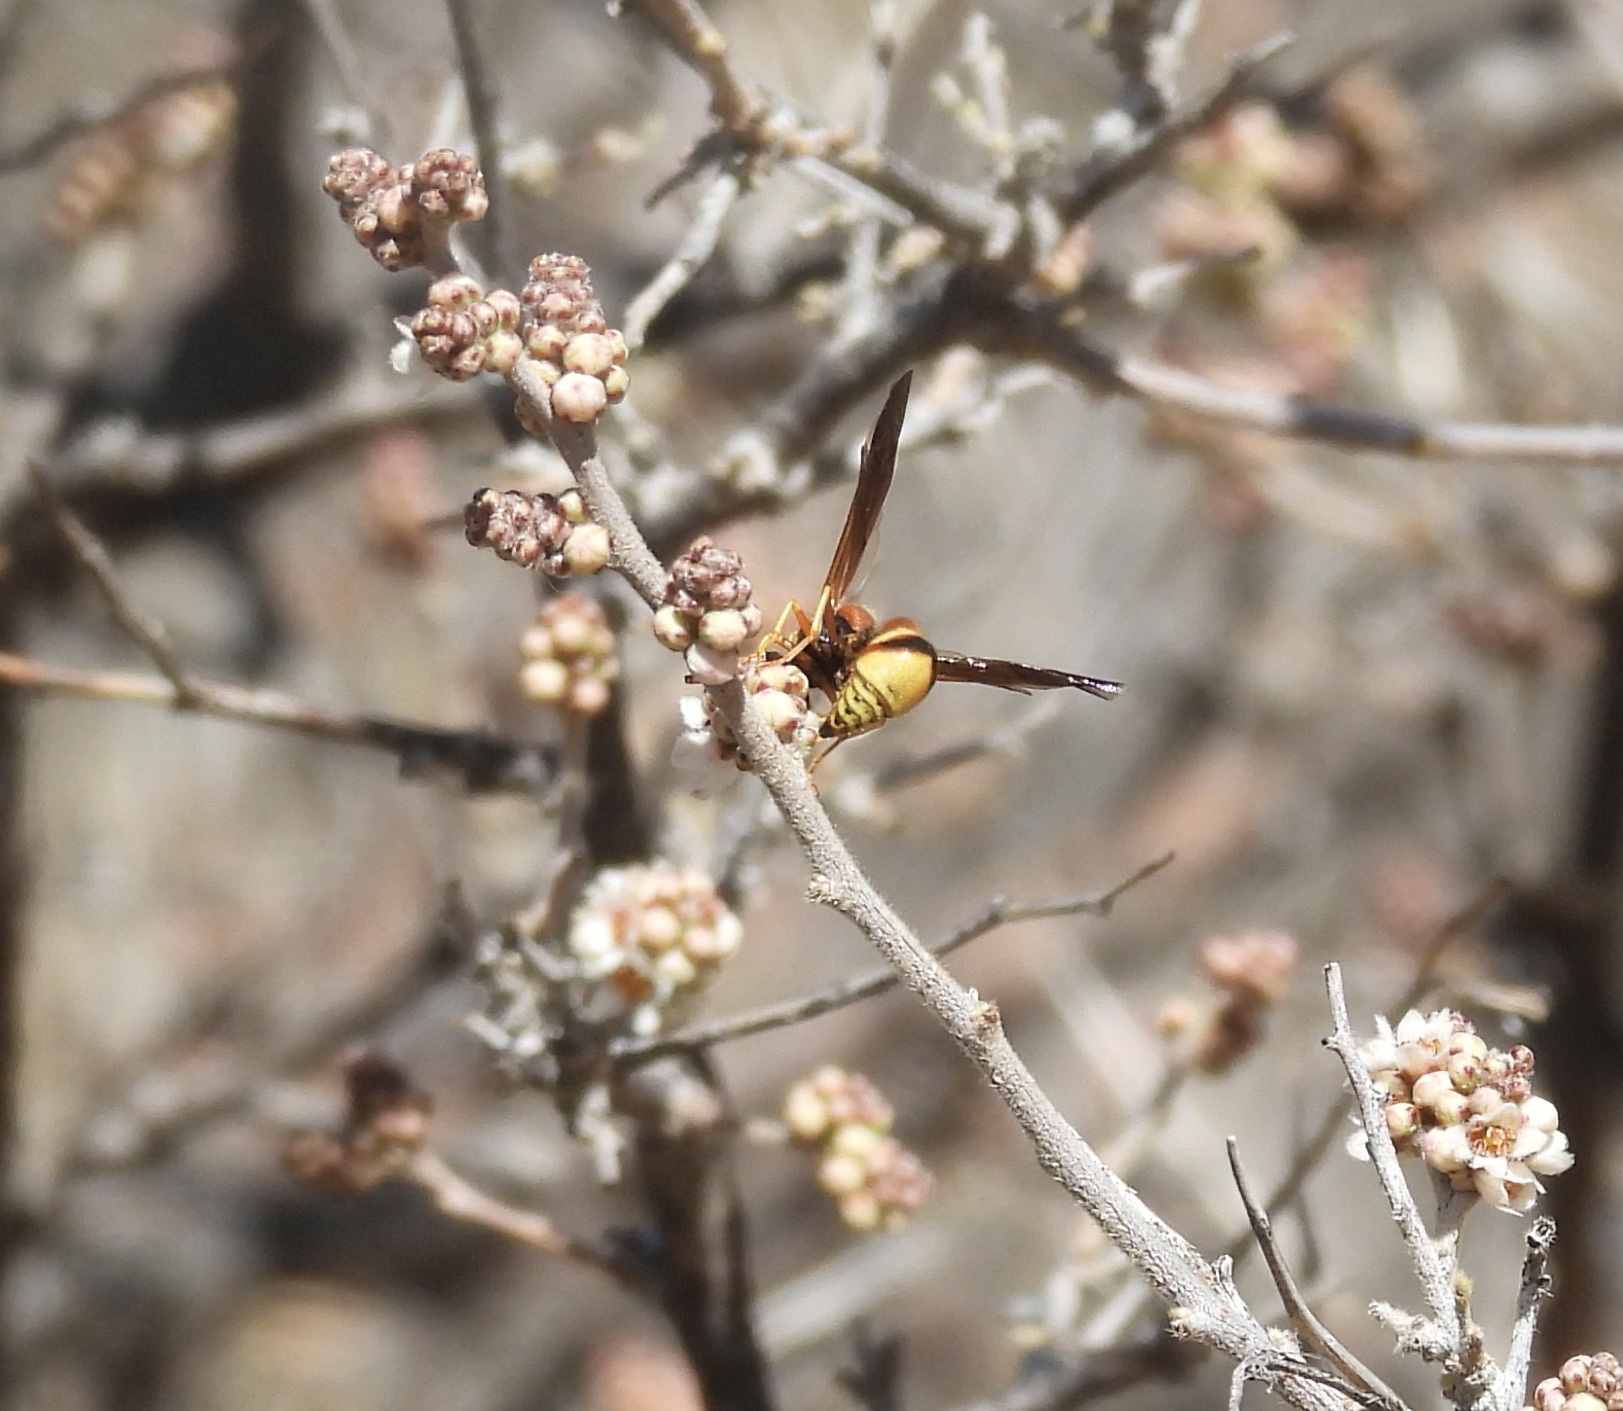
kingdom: Animalia
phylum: Arthropoda
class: Insecta
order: Hymenoptera
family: Vespidae
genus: Eumenes
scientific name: Eumenes bollii
